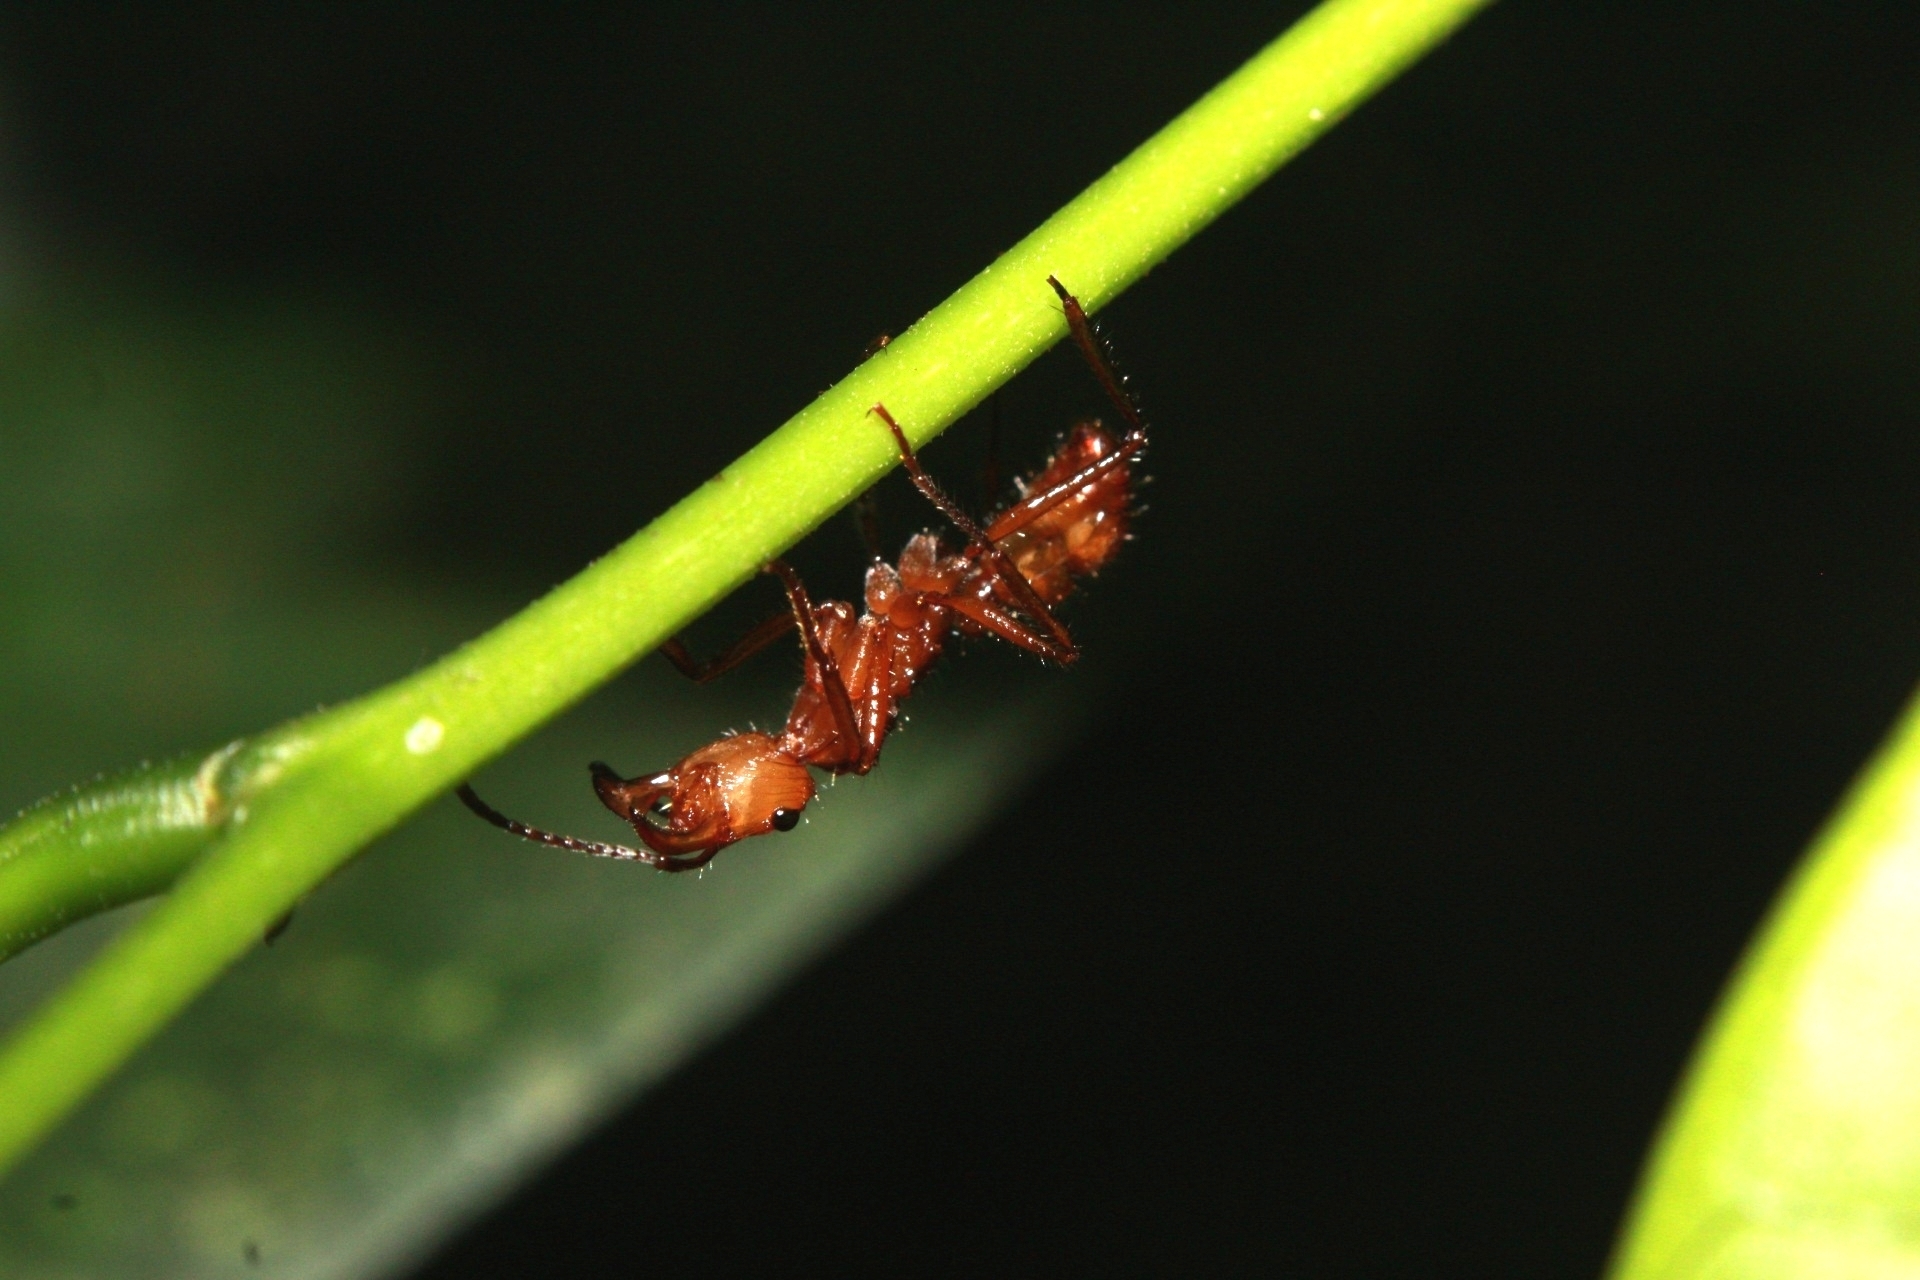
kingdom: Animalia
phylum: Arthropoda
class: Insecta
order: Hymenoptera
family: Formicidae
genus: Ectatomma
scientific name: Ectatomma tuberculatum
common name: Ant
